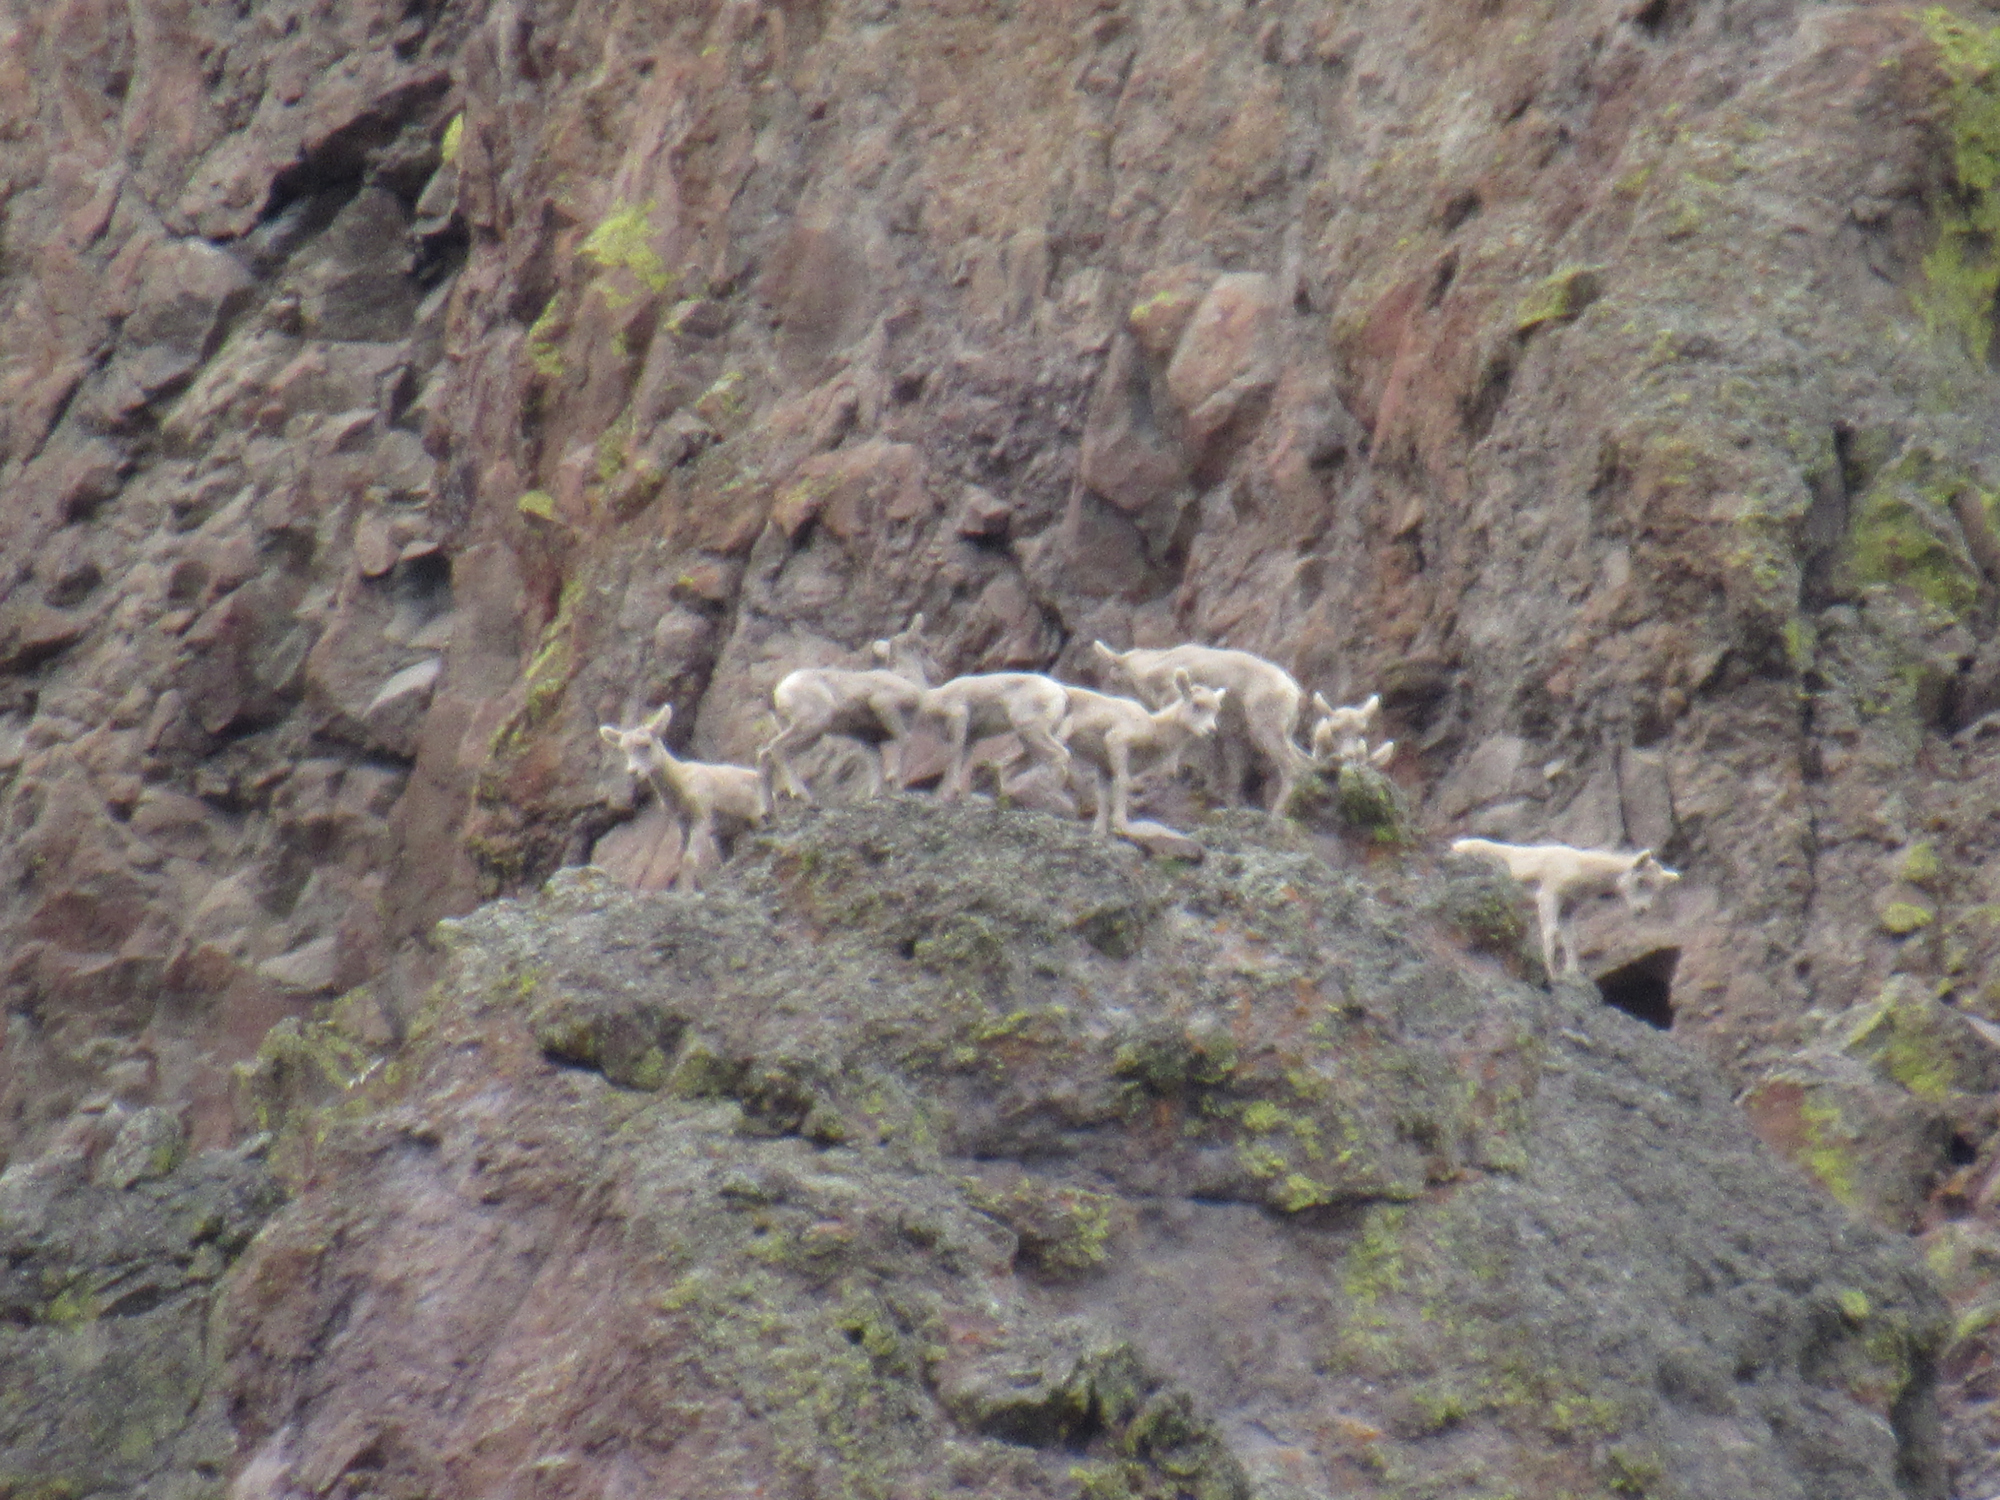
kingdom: Animalia
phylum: Chordata
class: Mammalia
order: Artiodactyla
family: Bovidae
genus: Ovis
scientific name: Ovis canadensis
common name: Bighorn sheep
